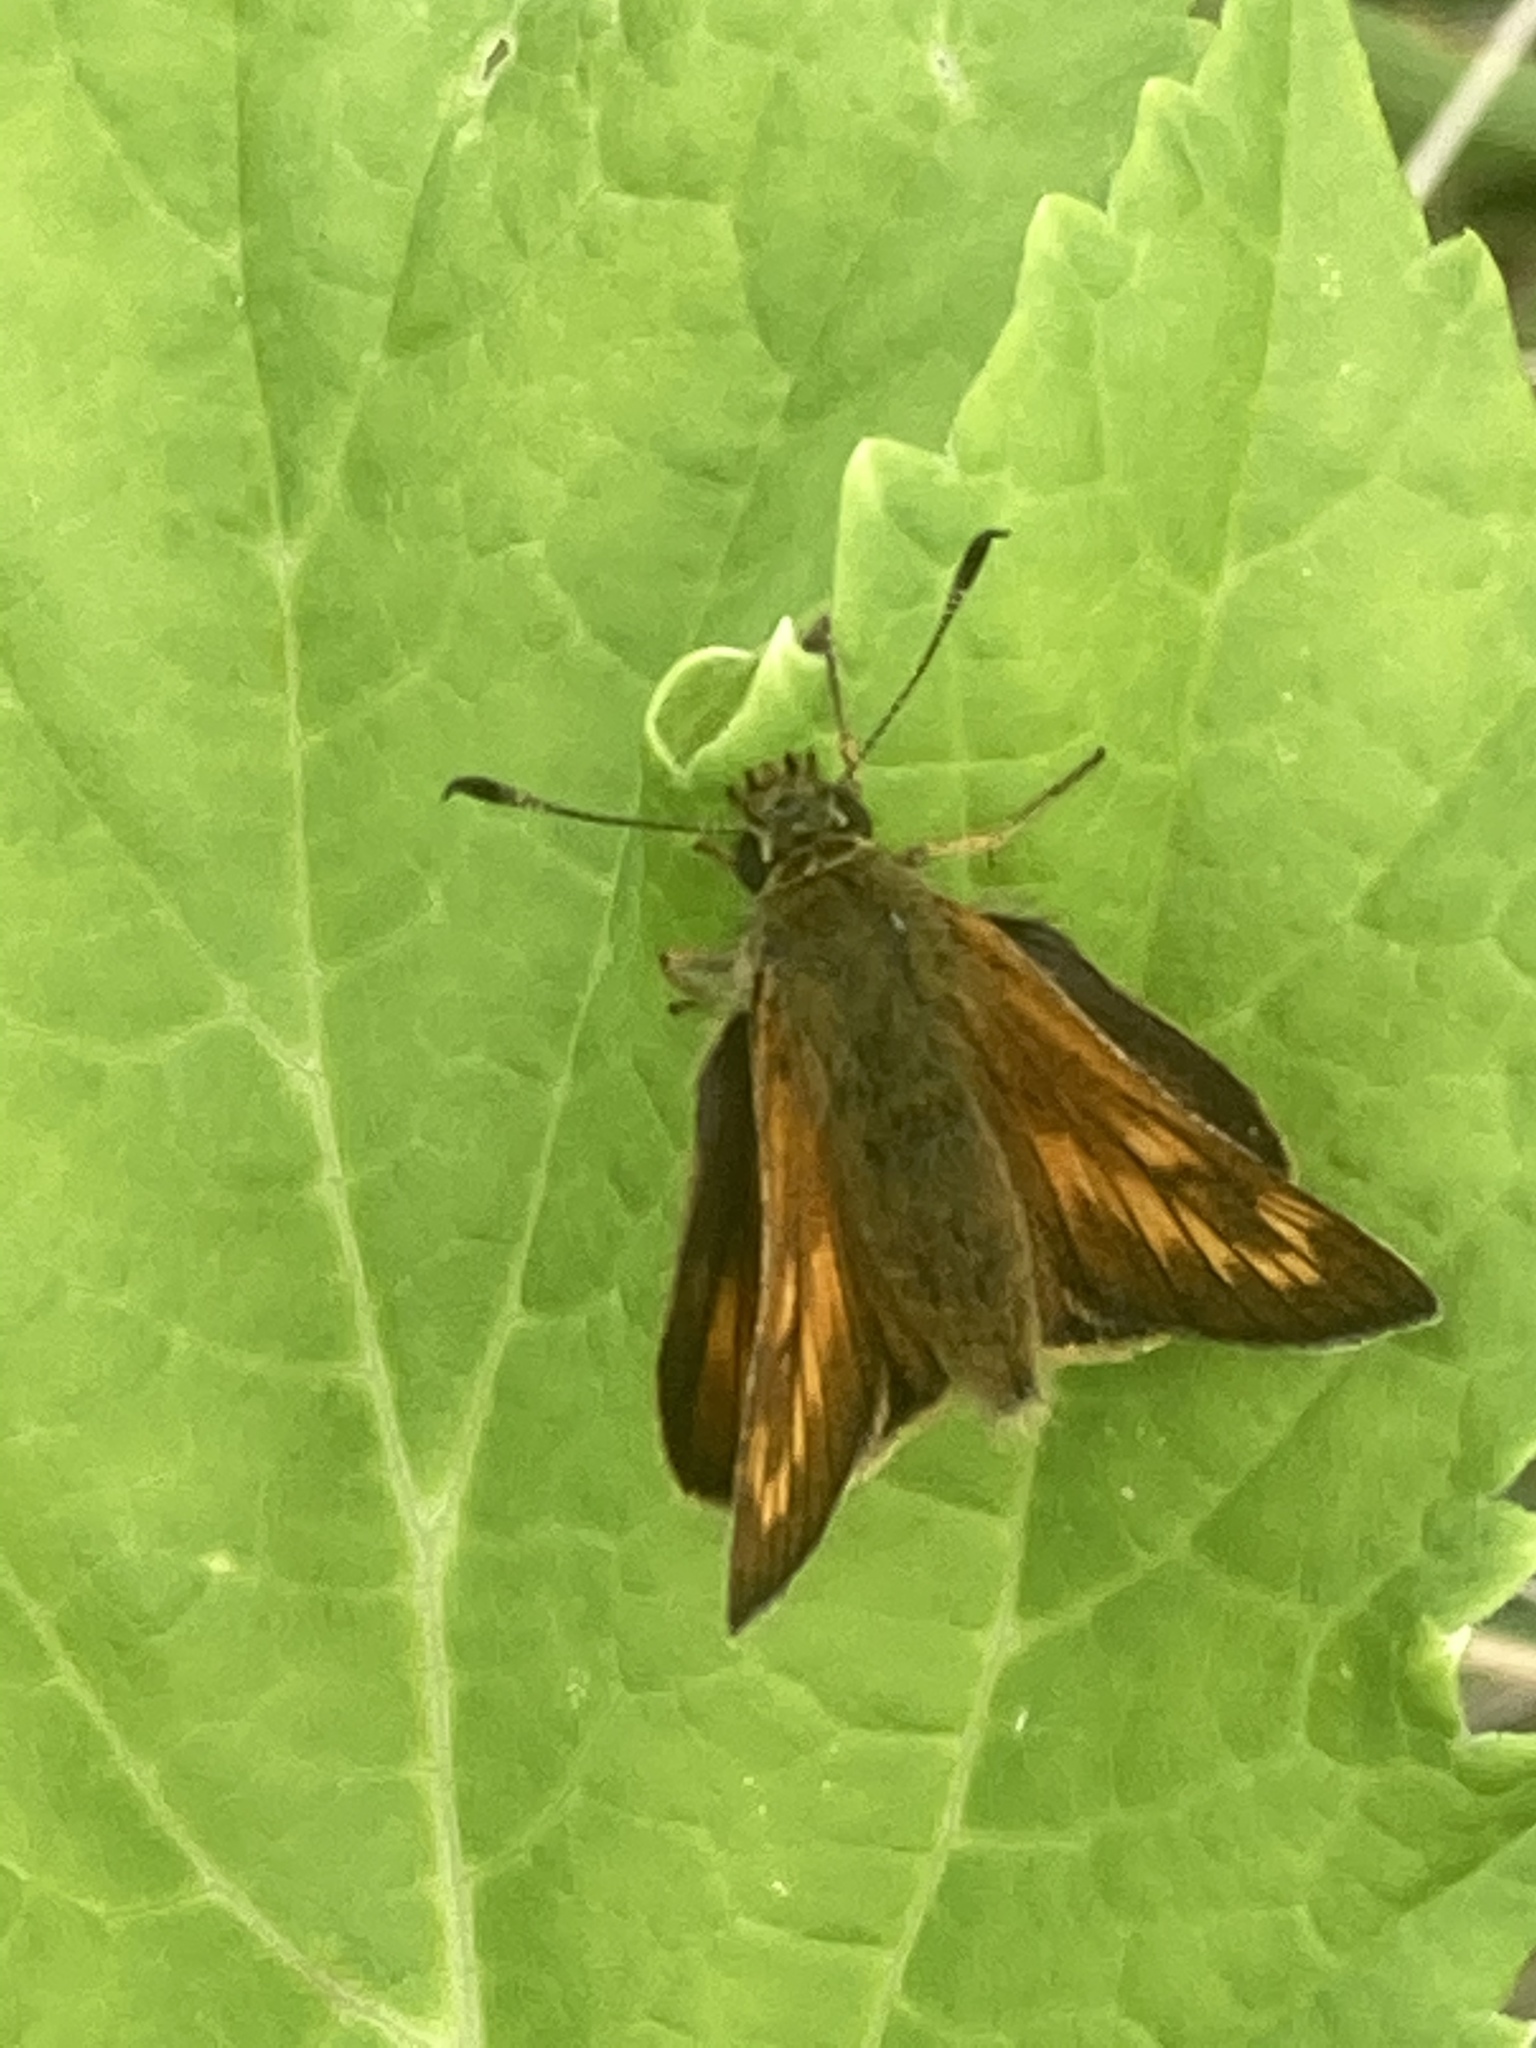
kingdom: Animalia
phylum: Arthropoda
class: Insecta
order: Lepidoptera
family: Hesperiidae
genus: Ochlodes
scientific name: Ochlodes venata
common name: Large skipper
